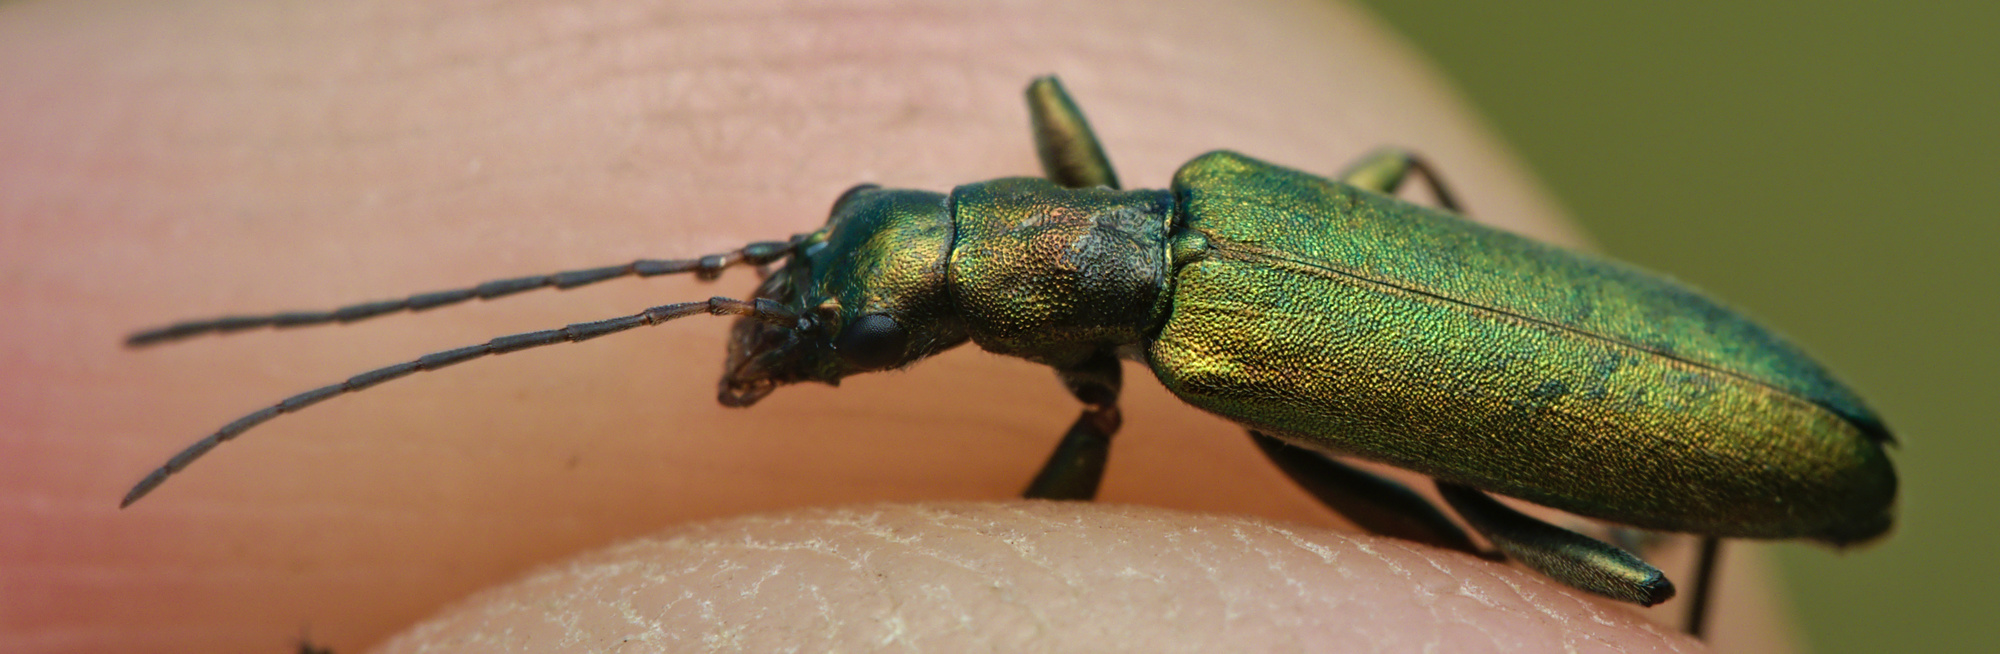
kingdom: Animalia
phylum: Arthropoda
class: Insecta
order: Coleoptera
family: Oedemeridae
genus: Chrysanthia
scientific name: Chrysanthia viridissima
